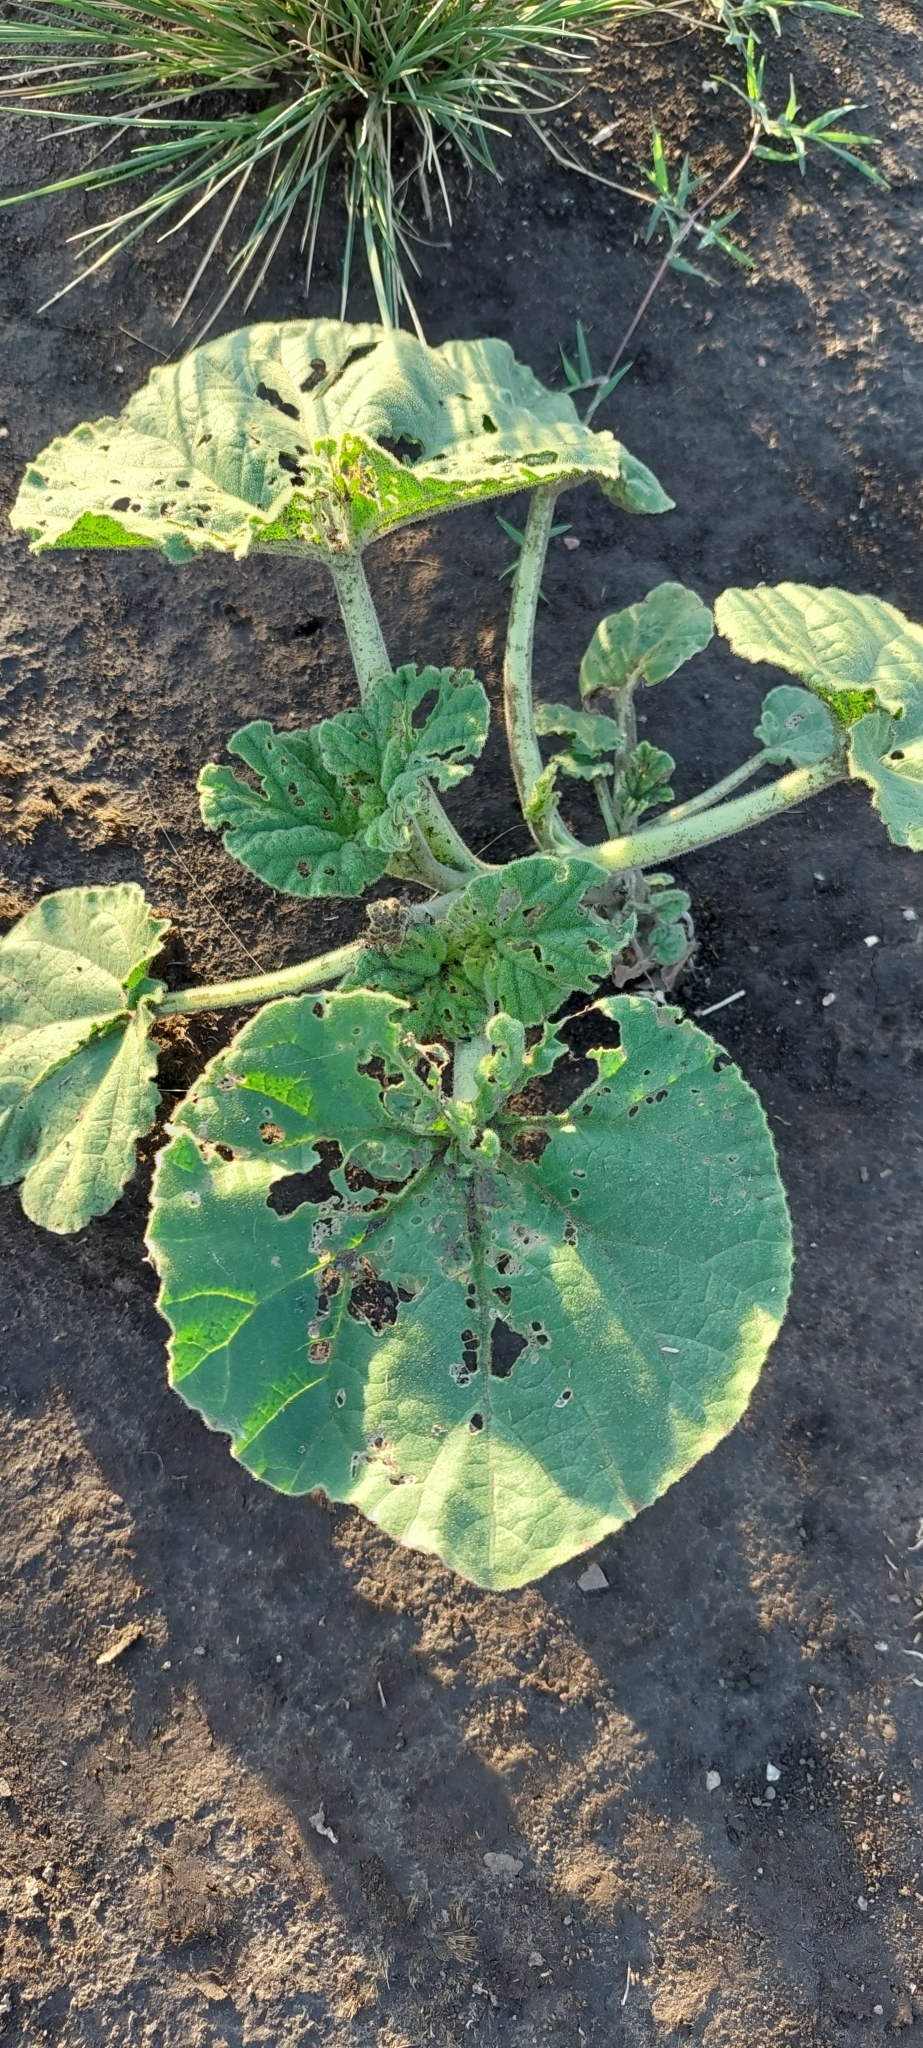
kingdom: Plantae
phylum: Tracheophyta
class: Magnoliopsida
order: Lamiales
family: Martyniaceae
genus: Ibicella
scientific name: Ibicella lutea
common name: Yellow unicorn-plant
